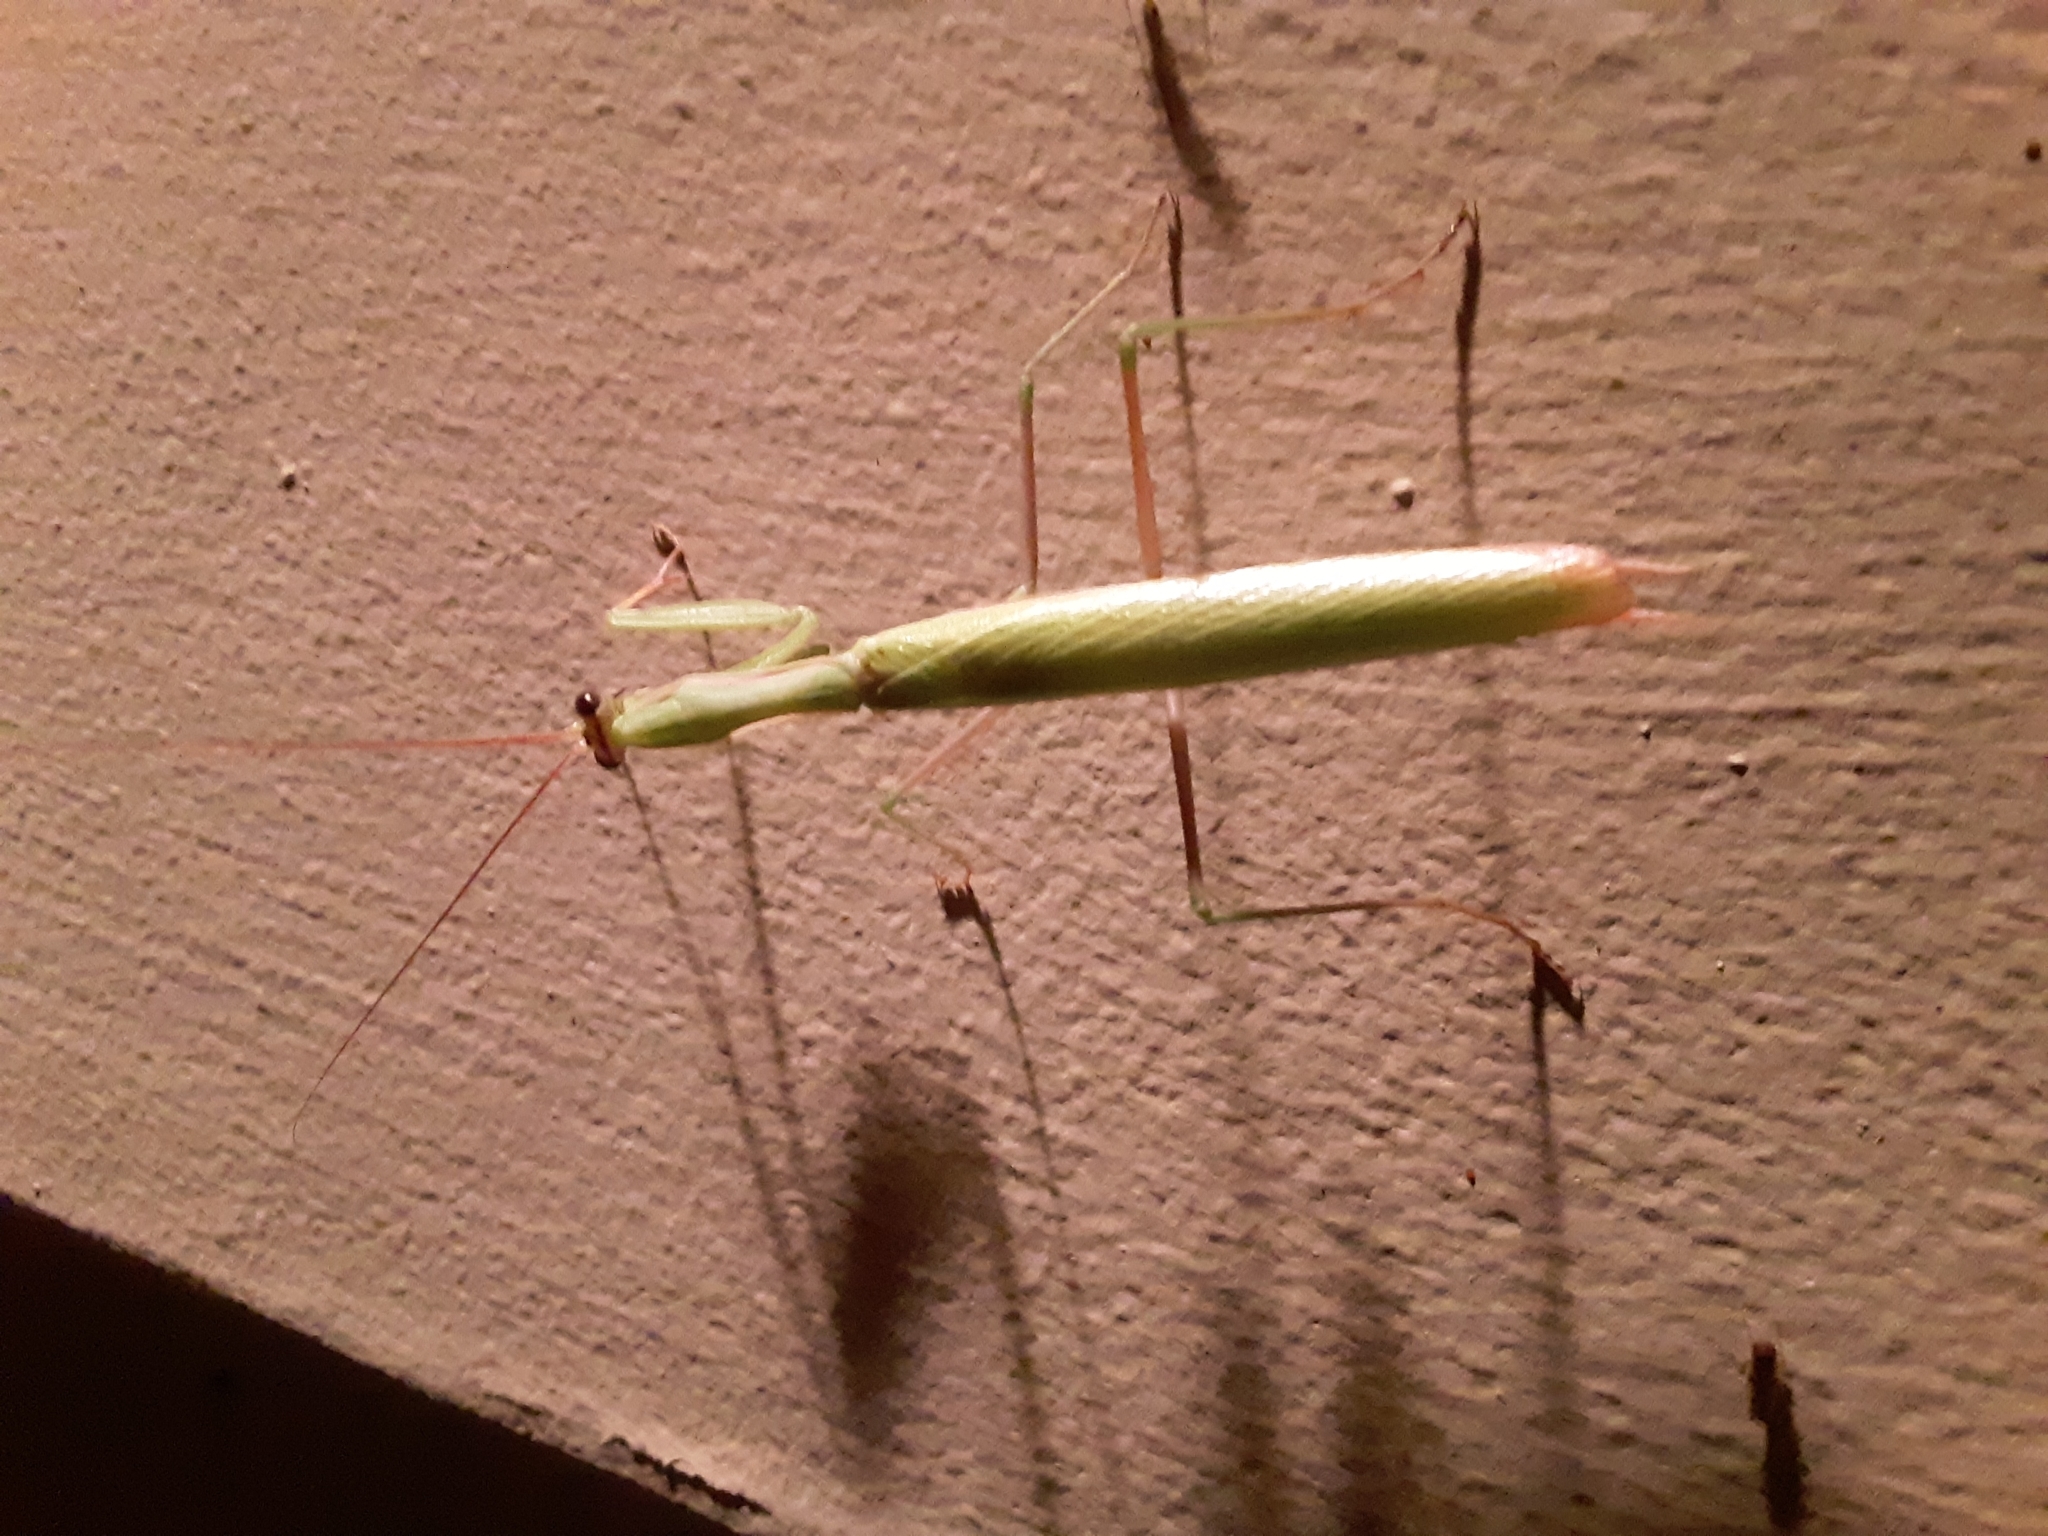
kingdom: Animalia
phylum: Arthropoda
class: Insecta
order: Mantodea
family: Mantidae
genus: Mantis
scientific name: Mantis religiosa
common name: Praying mantis
